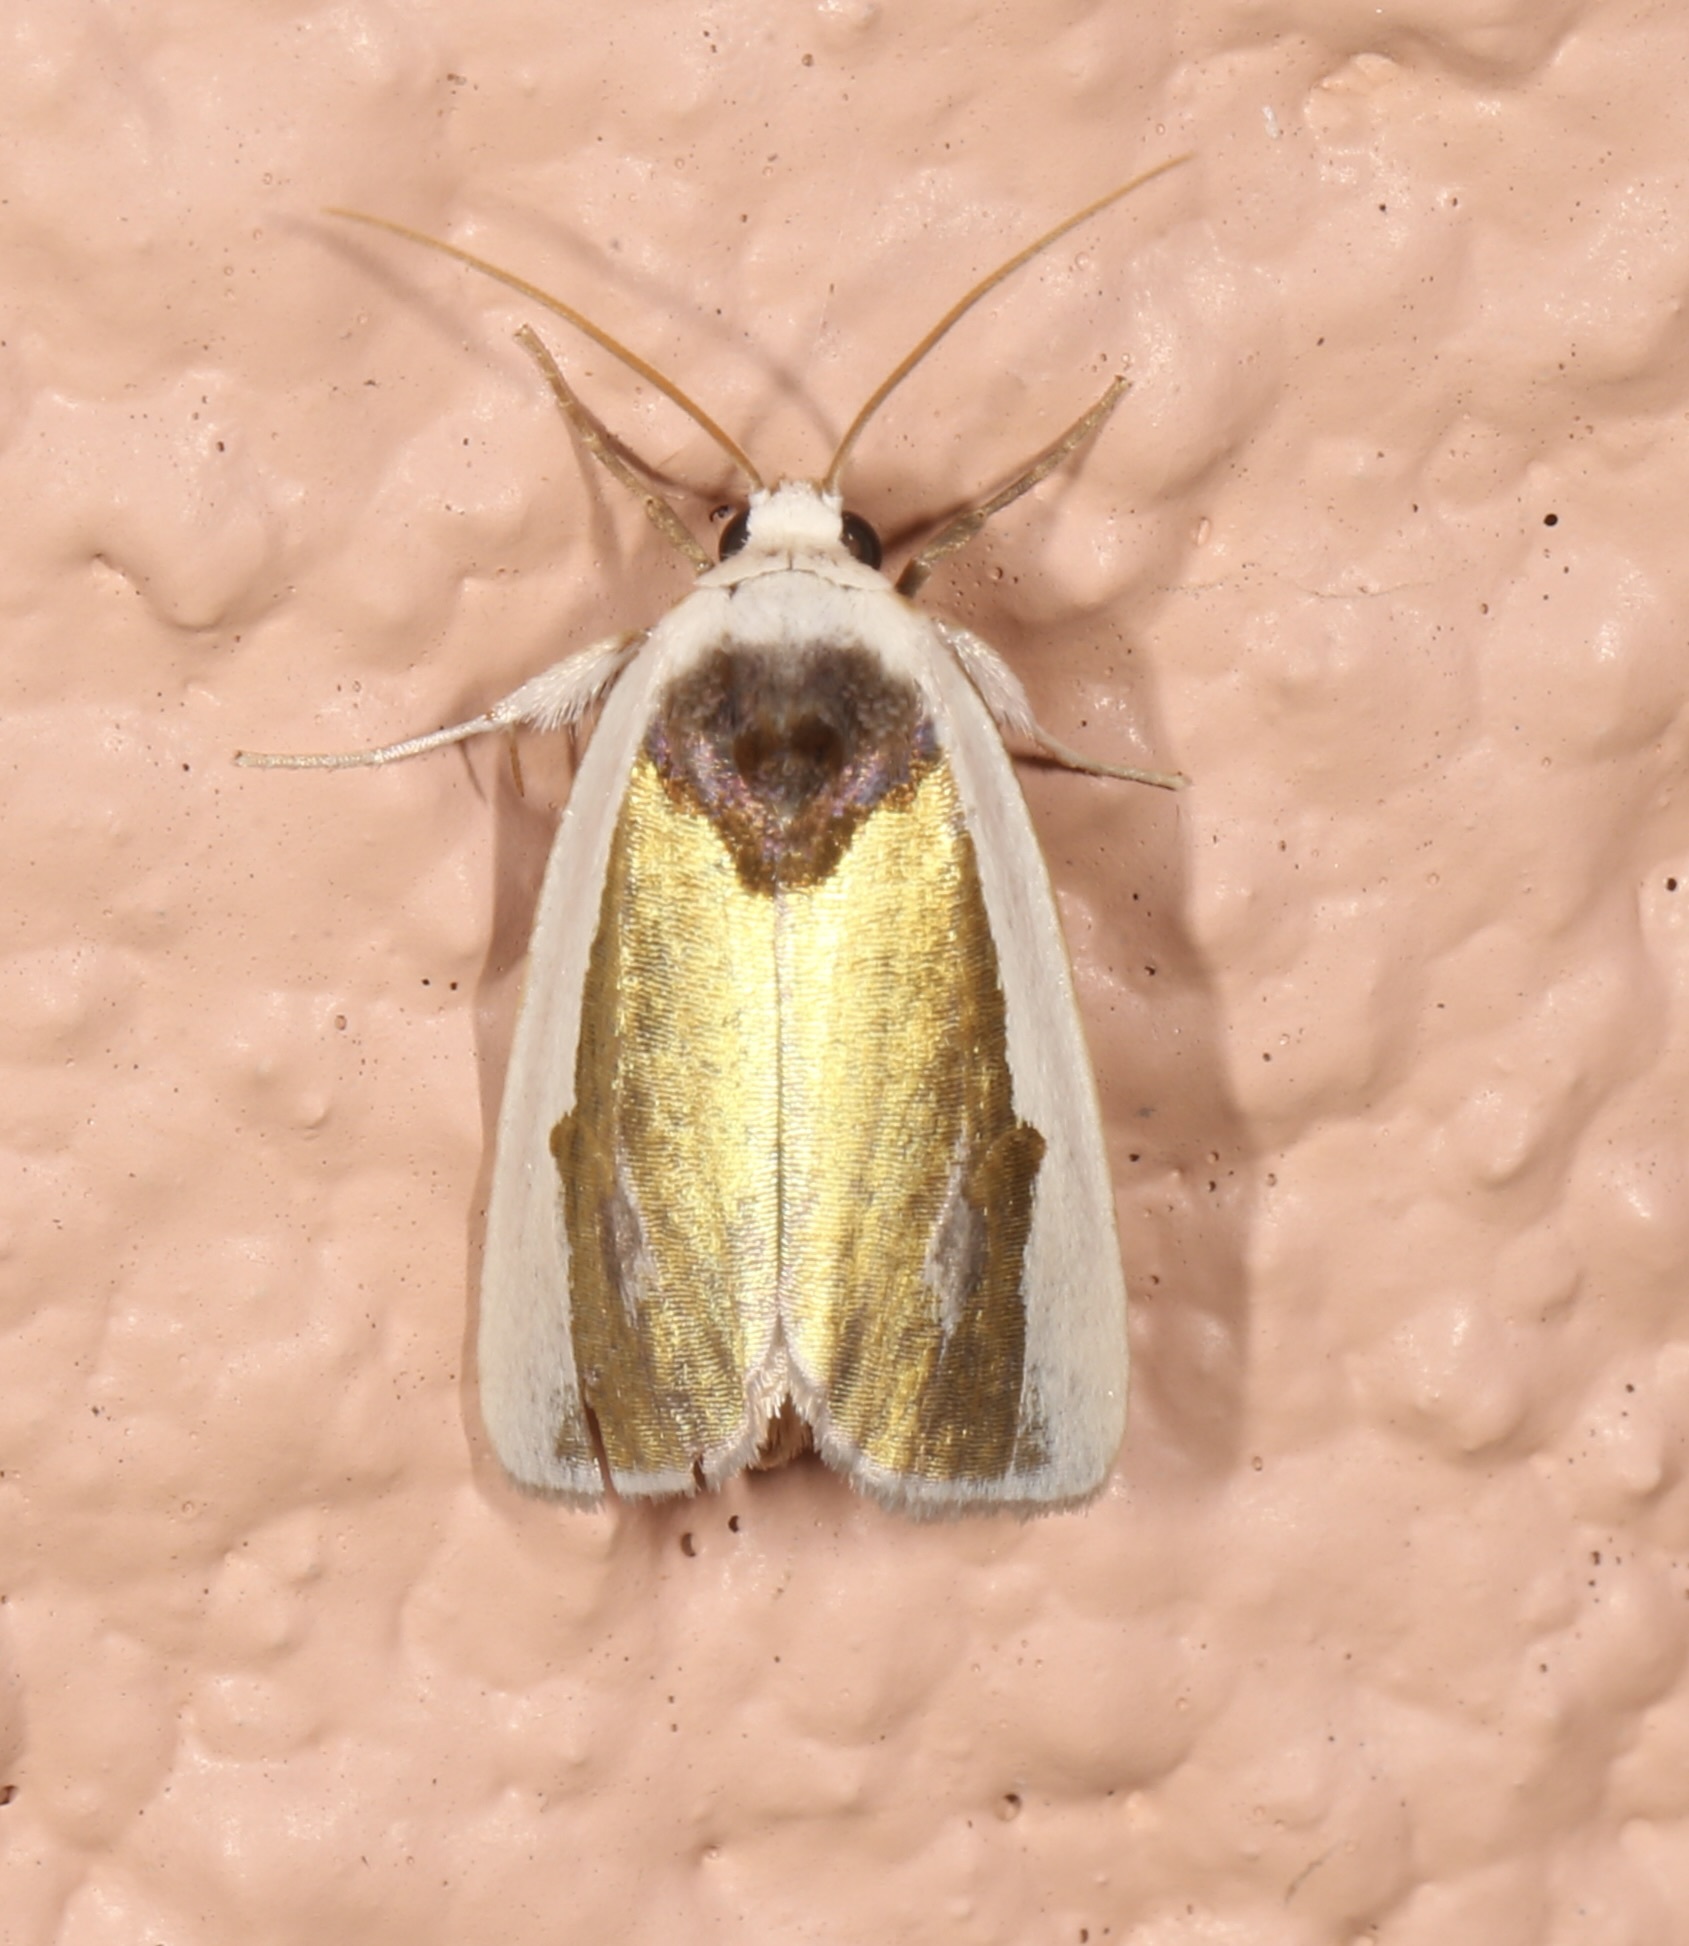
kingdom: Animalia
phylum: Arthropoda
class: Insecta
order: Lepidoptera
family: Noctuidae
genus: Neumoegenia
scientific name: Neumoegenia poetica
